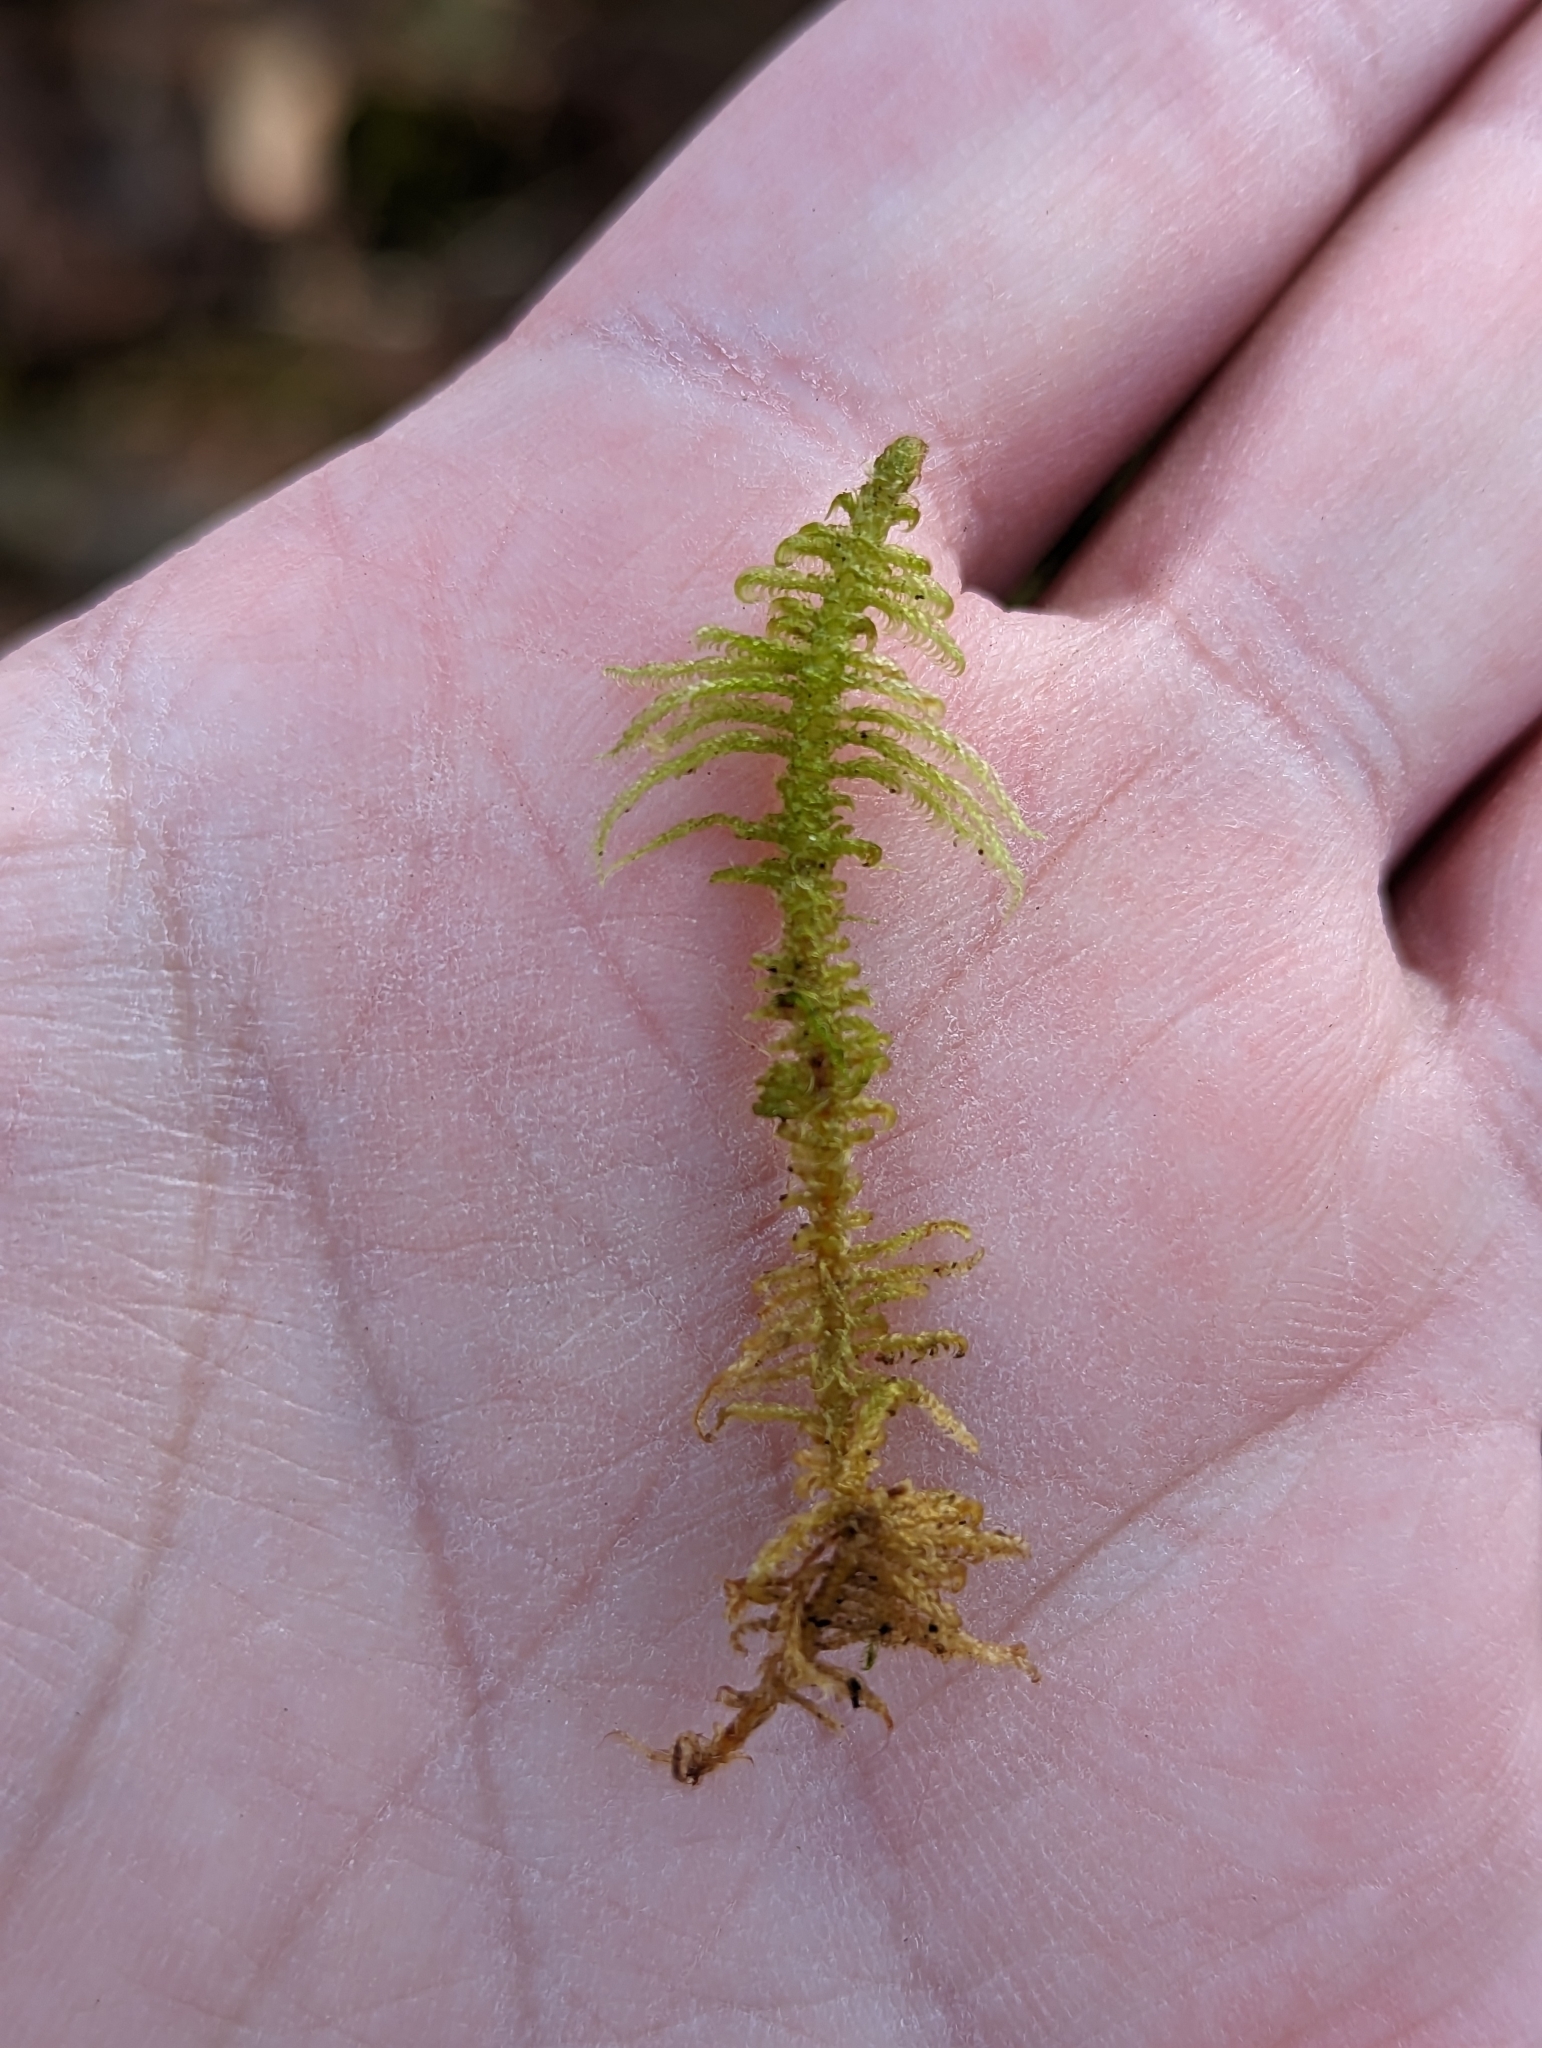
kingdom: Plantae
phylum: Bryophyta
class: Bryopsida
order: Hypnales
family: Pylaisiaceae
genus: Ptilium
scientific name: Ptilium crista-castrensis
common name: Knight's plume moss
